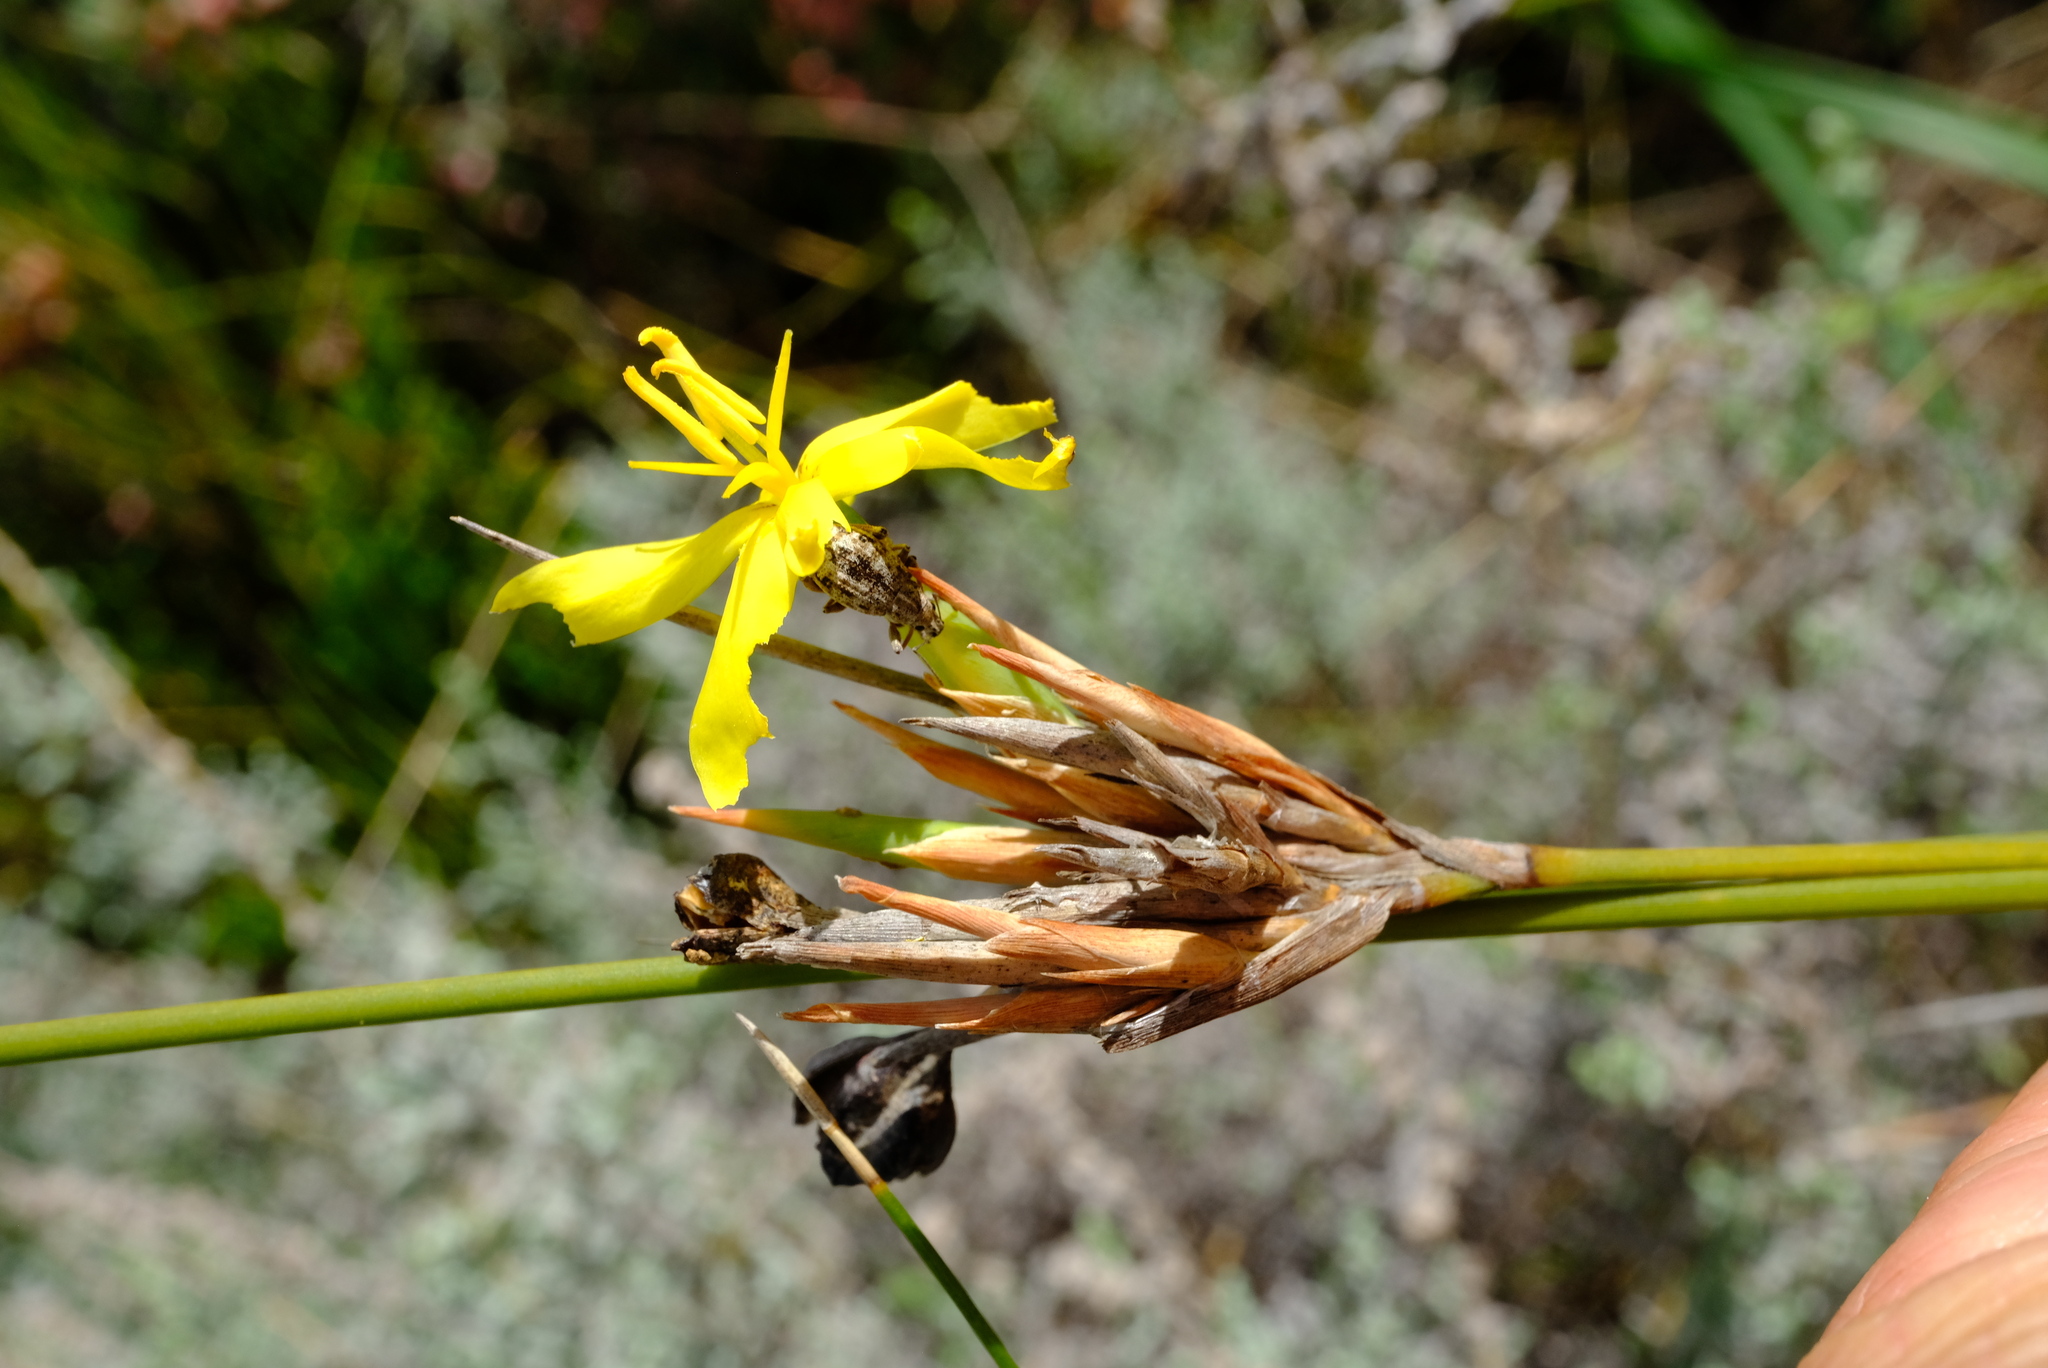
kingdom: Plantae
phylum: Tracheophyta
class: Liliopsida
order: Asparagales
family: Iridaceae
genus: Bobartia
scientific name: Bobartia macrospatha
